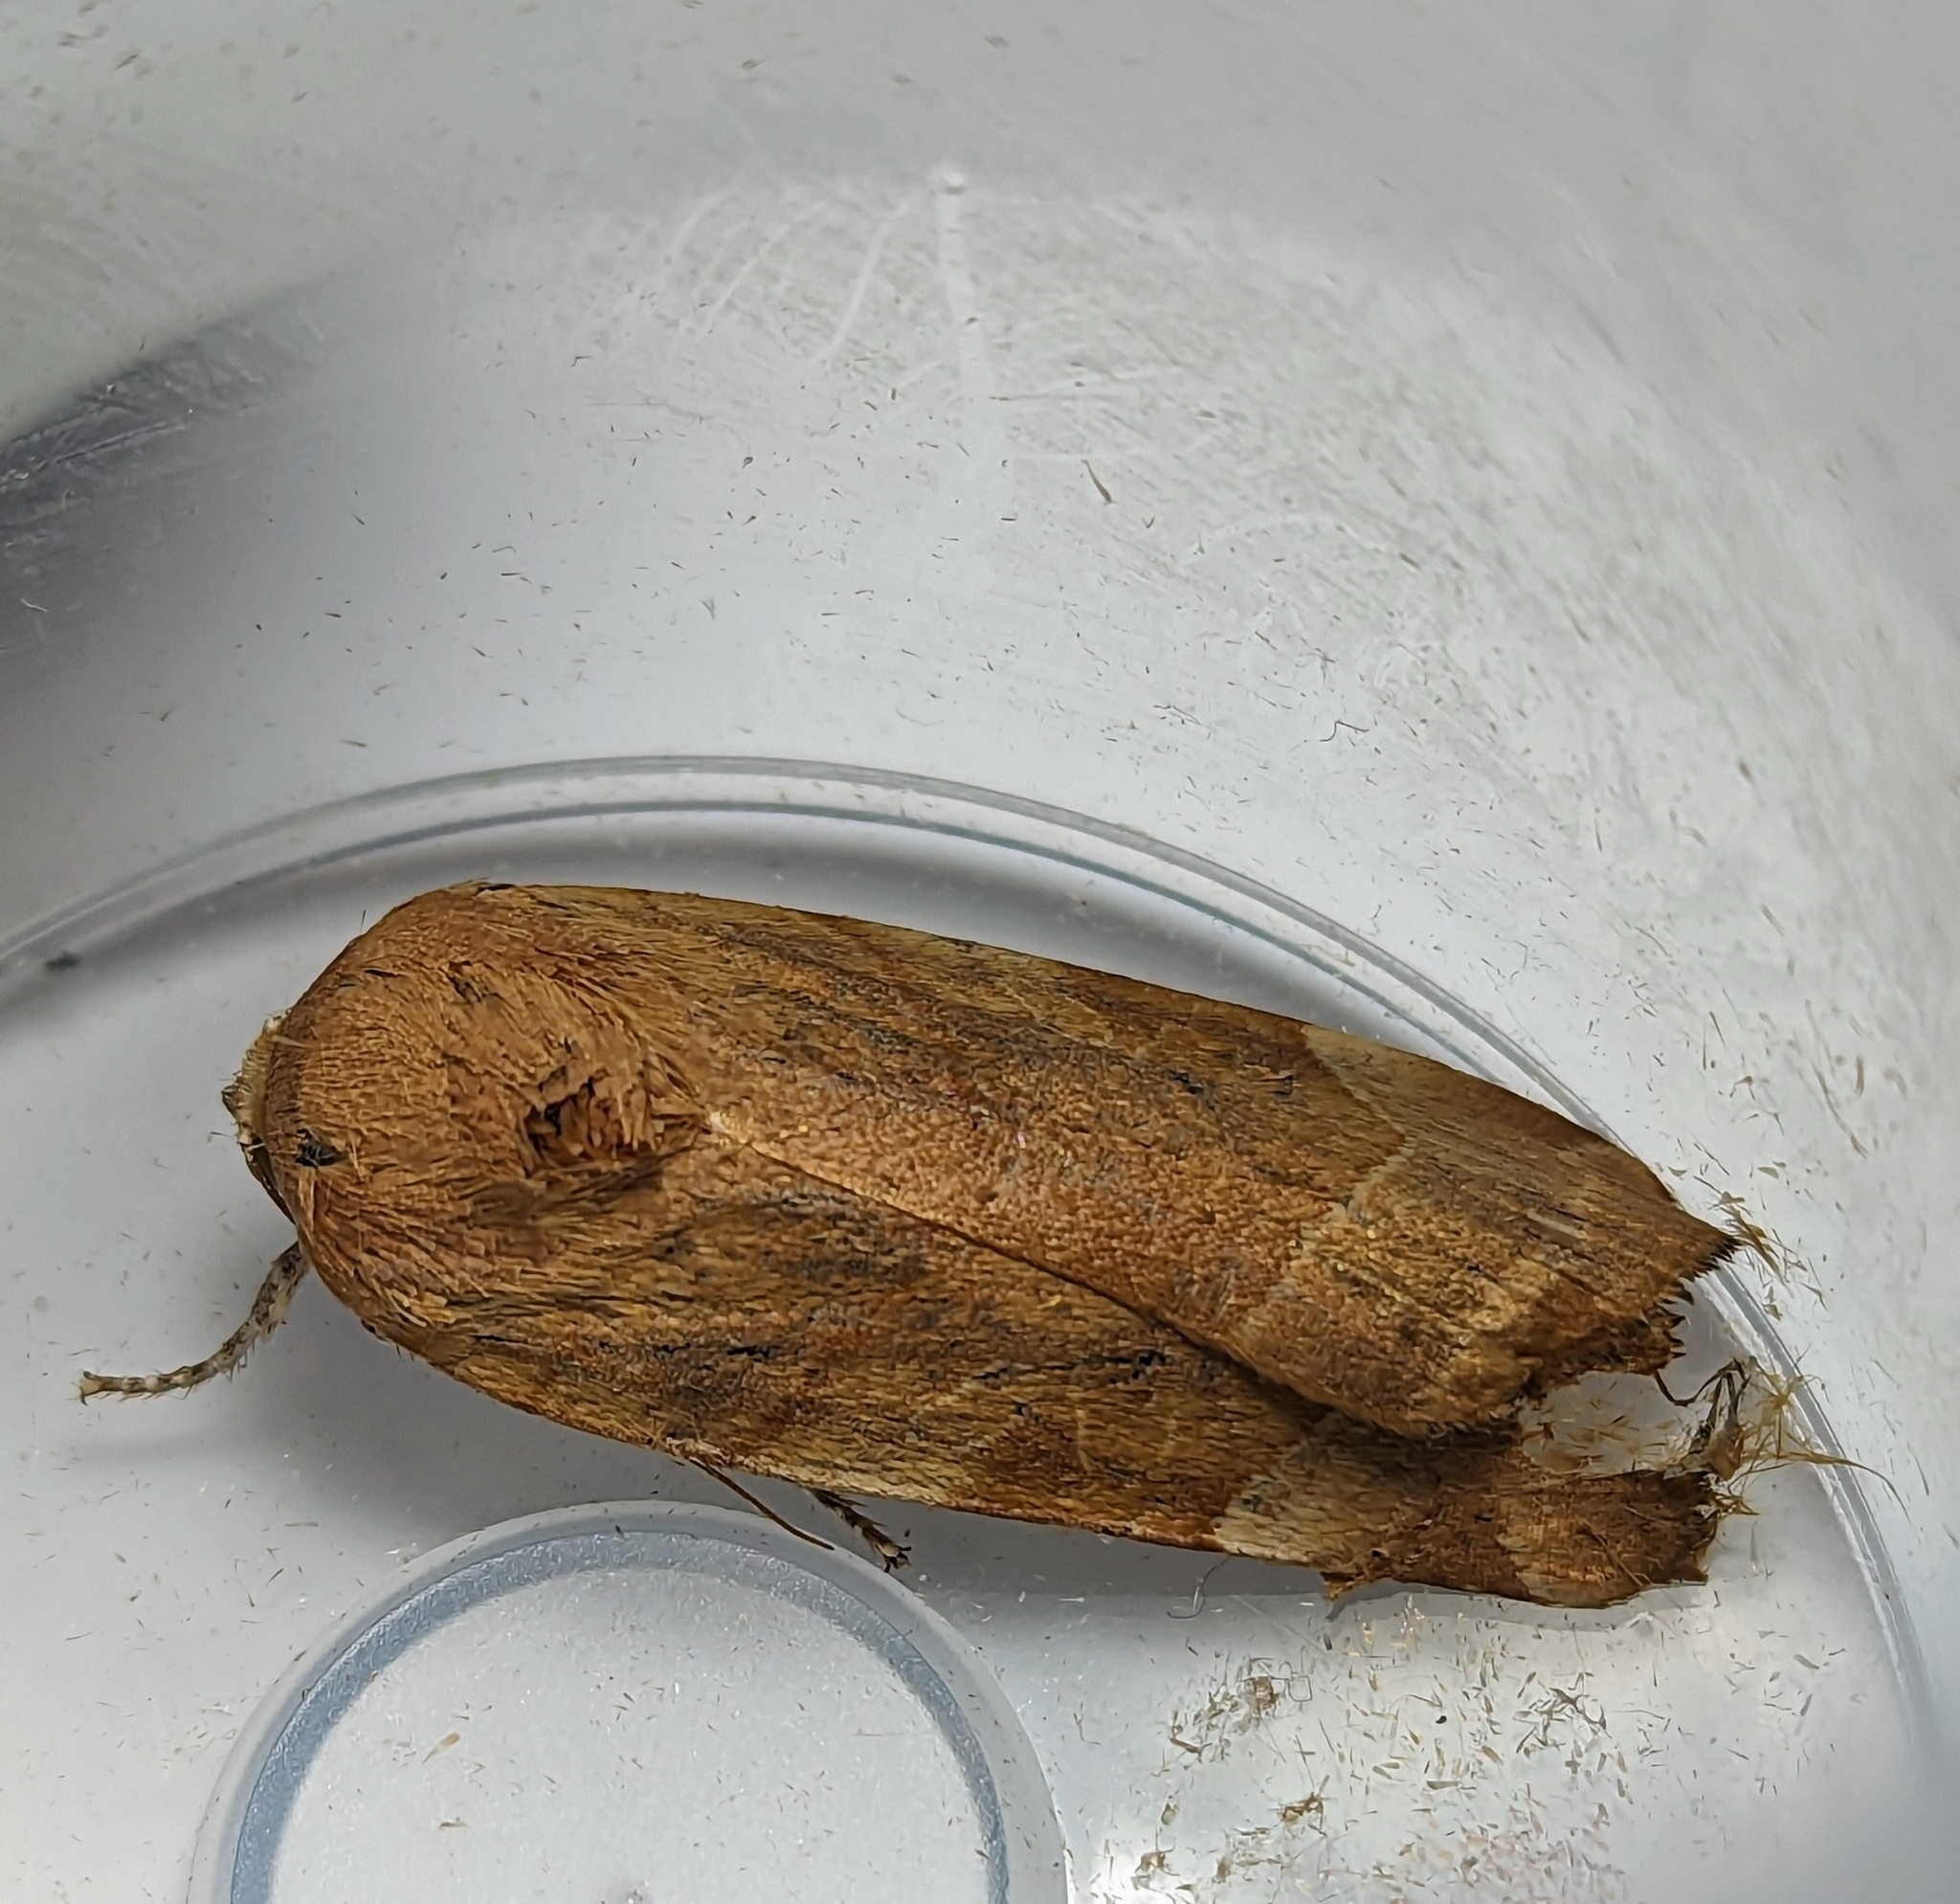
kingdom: Animalia
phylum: Arthropoda
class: Insecta
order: Lepidoptera
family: Noctuidae
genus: Noctua
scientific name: Noctua fimbriata
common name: Broad-bordered yellow underwing
